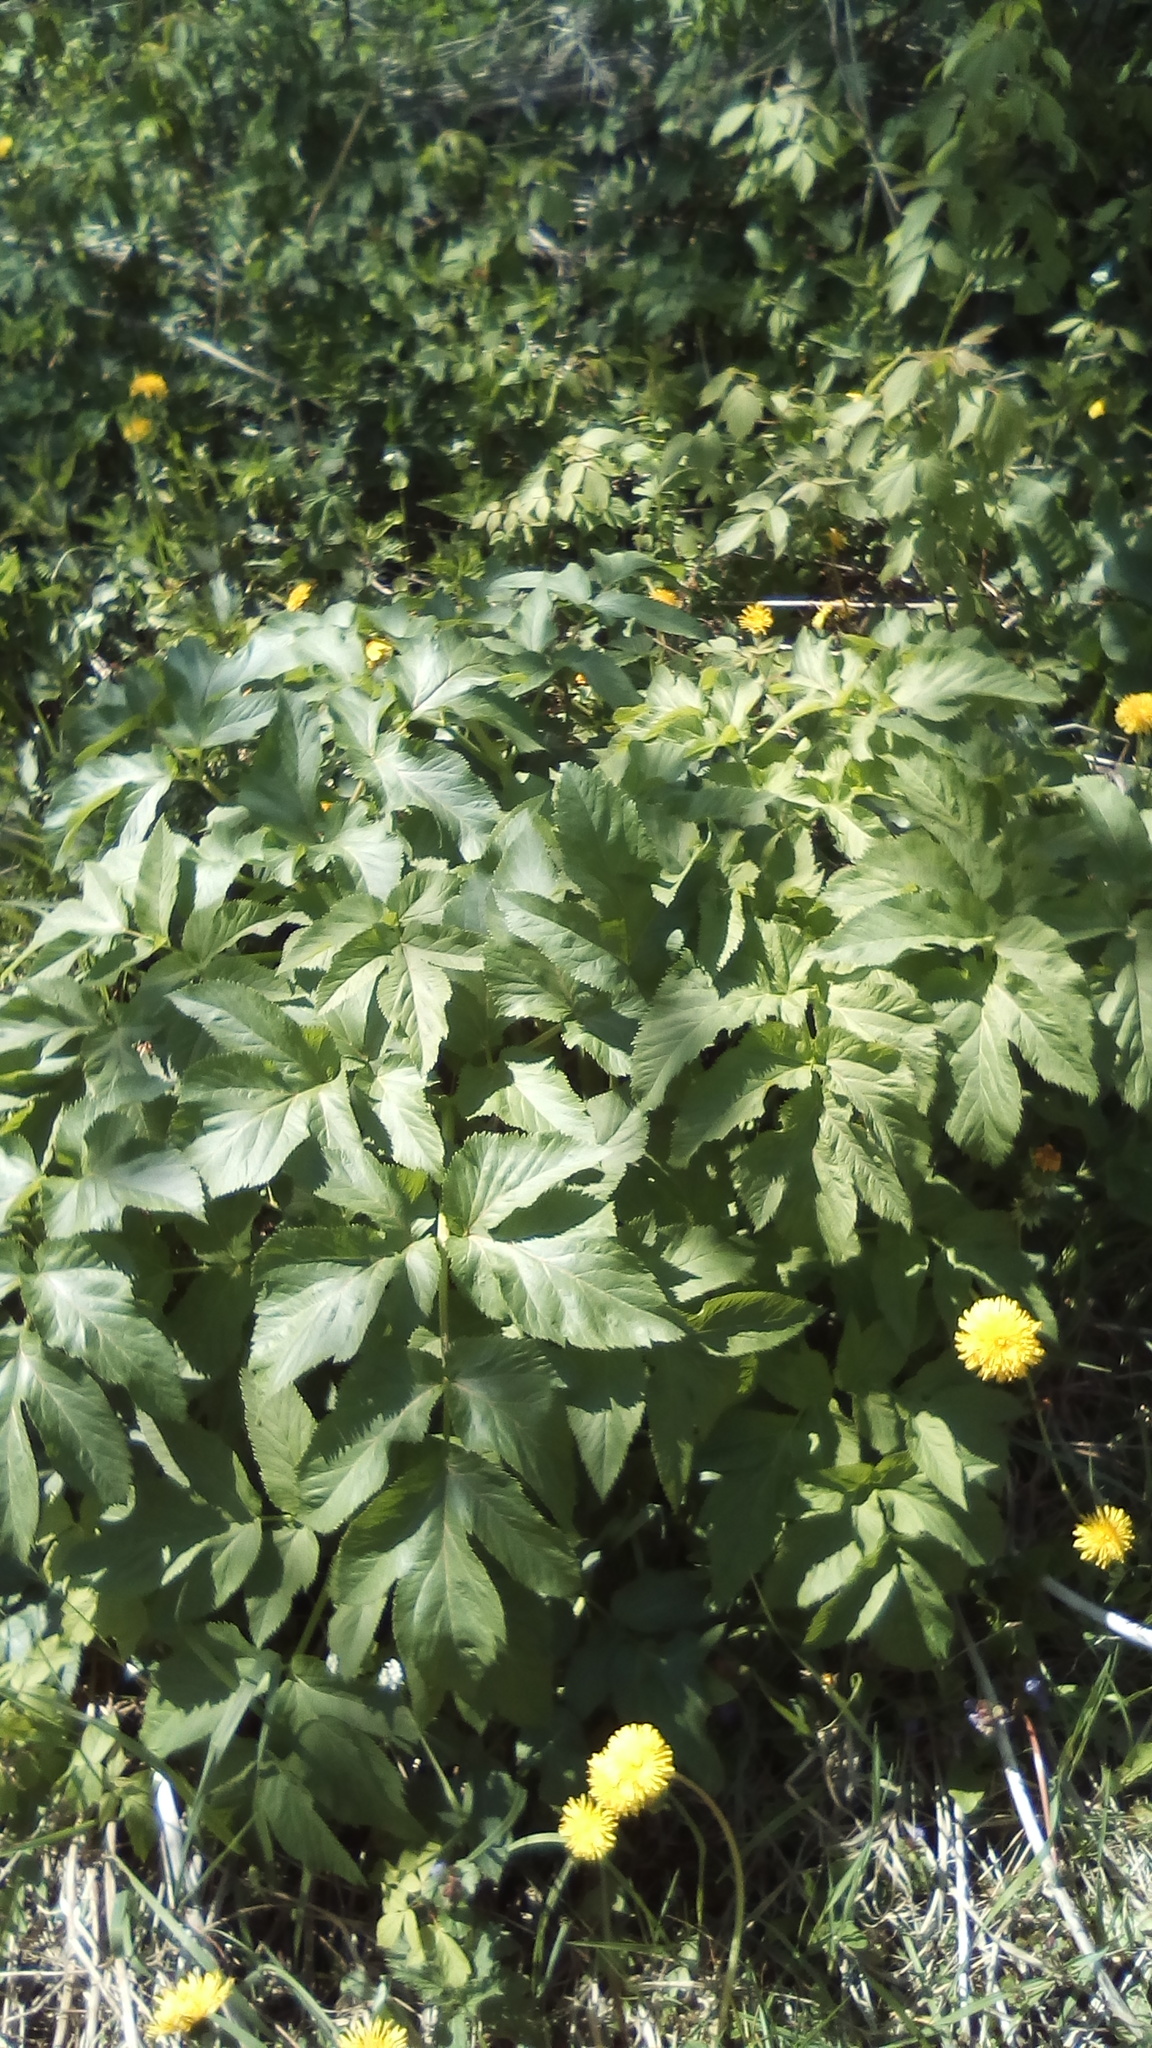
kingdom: Plantae
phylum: Tracheophyta
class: Magnoliopsida
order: Apiales
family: Apiaceae
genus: Angelica
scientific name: Angelica archangelica
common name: Garden angelica
